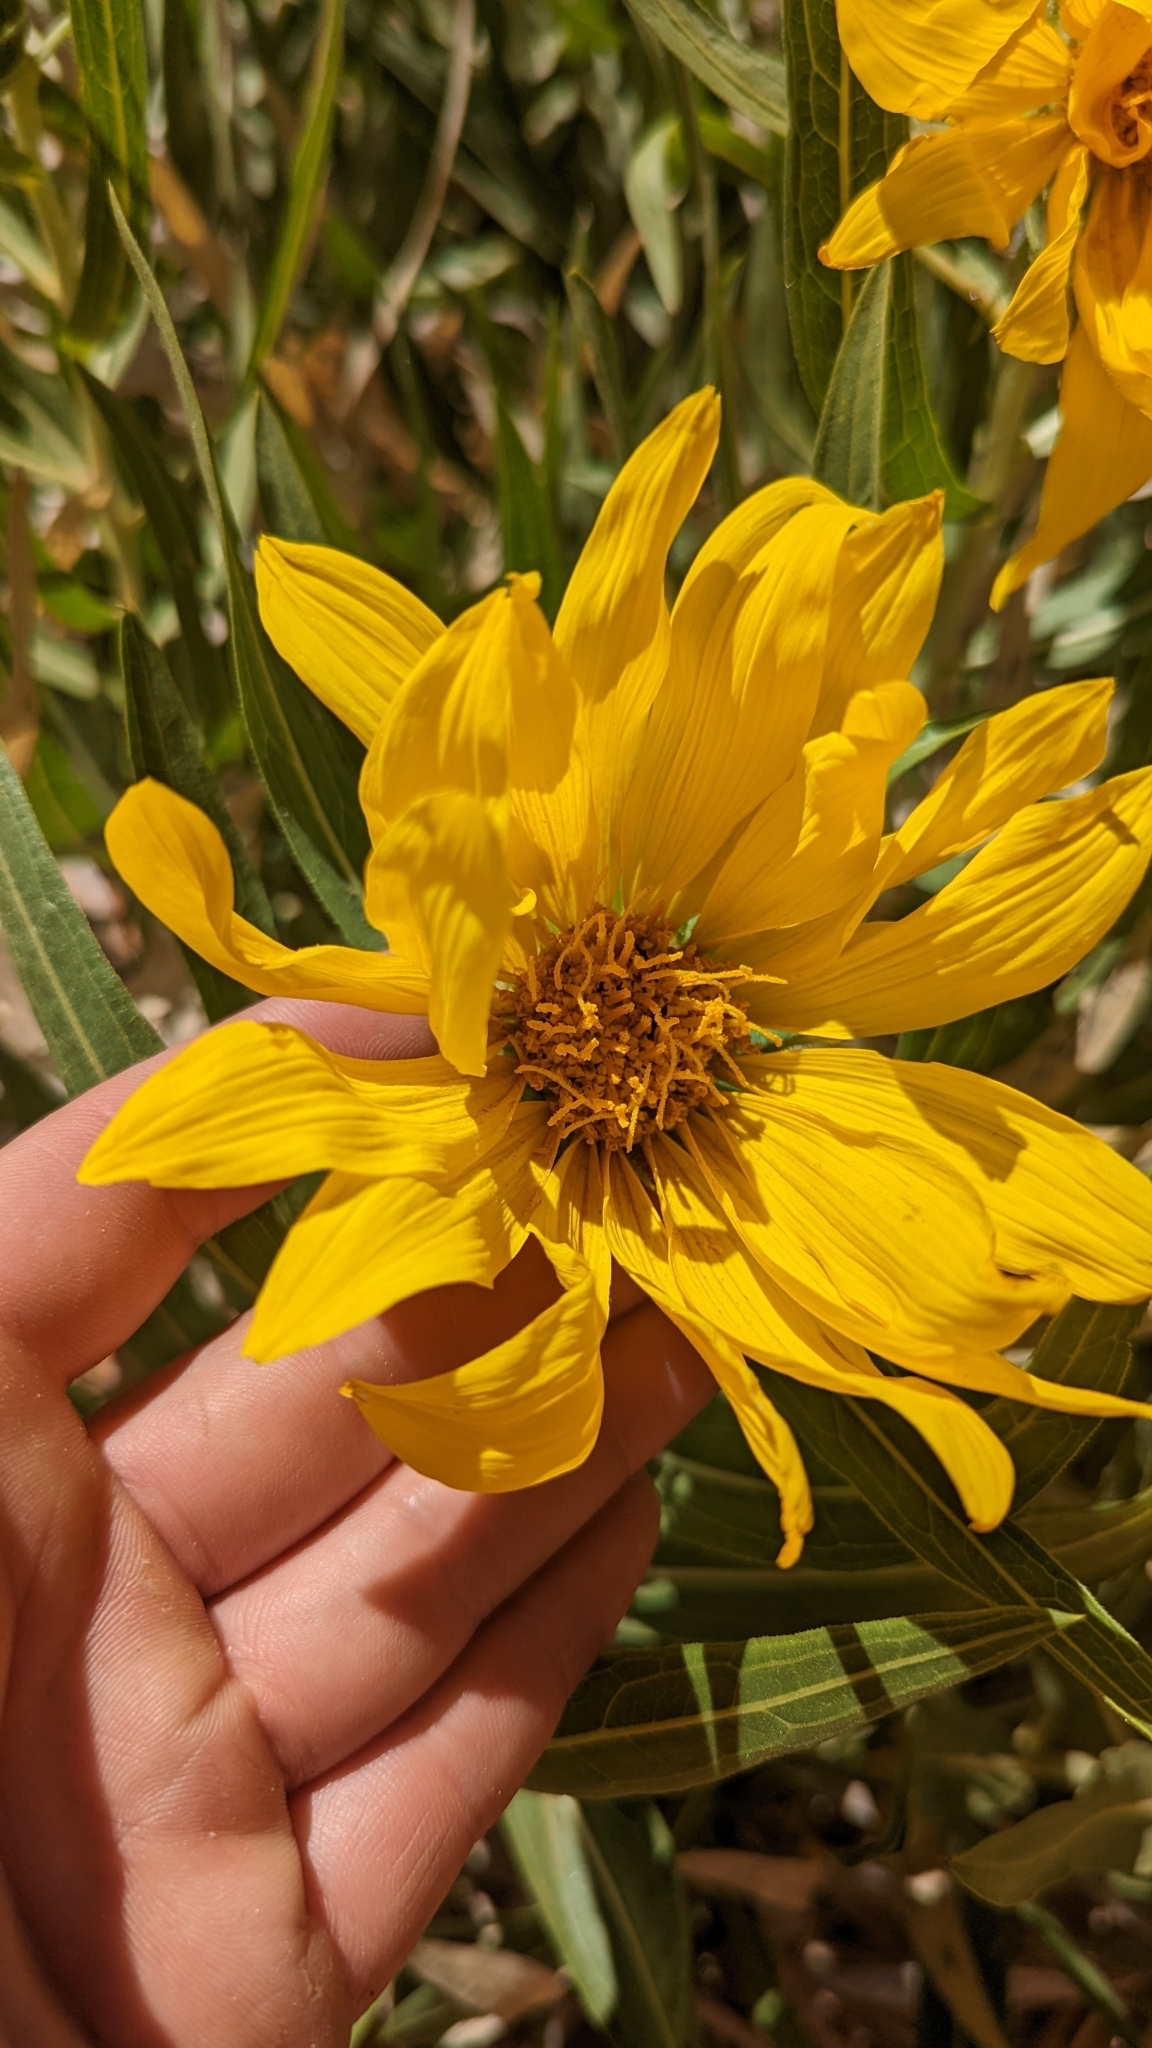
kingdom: Plantae
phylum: Tracheophyta
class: Magnoliopsida
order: Asterales
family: Asteraceae
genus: Scabrethia
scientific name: Scabrethia scabra
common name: Rough mules's-ears
